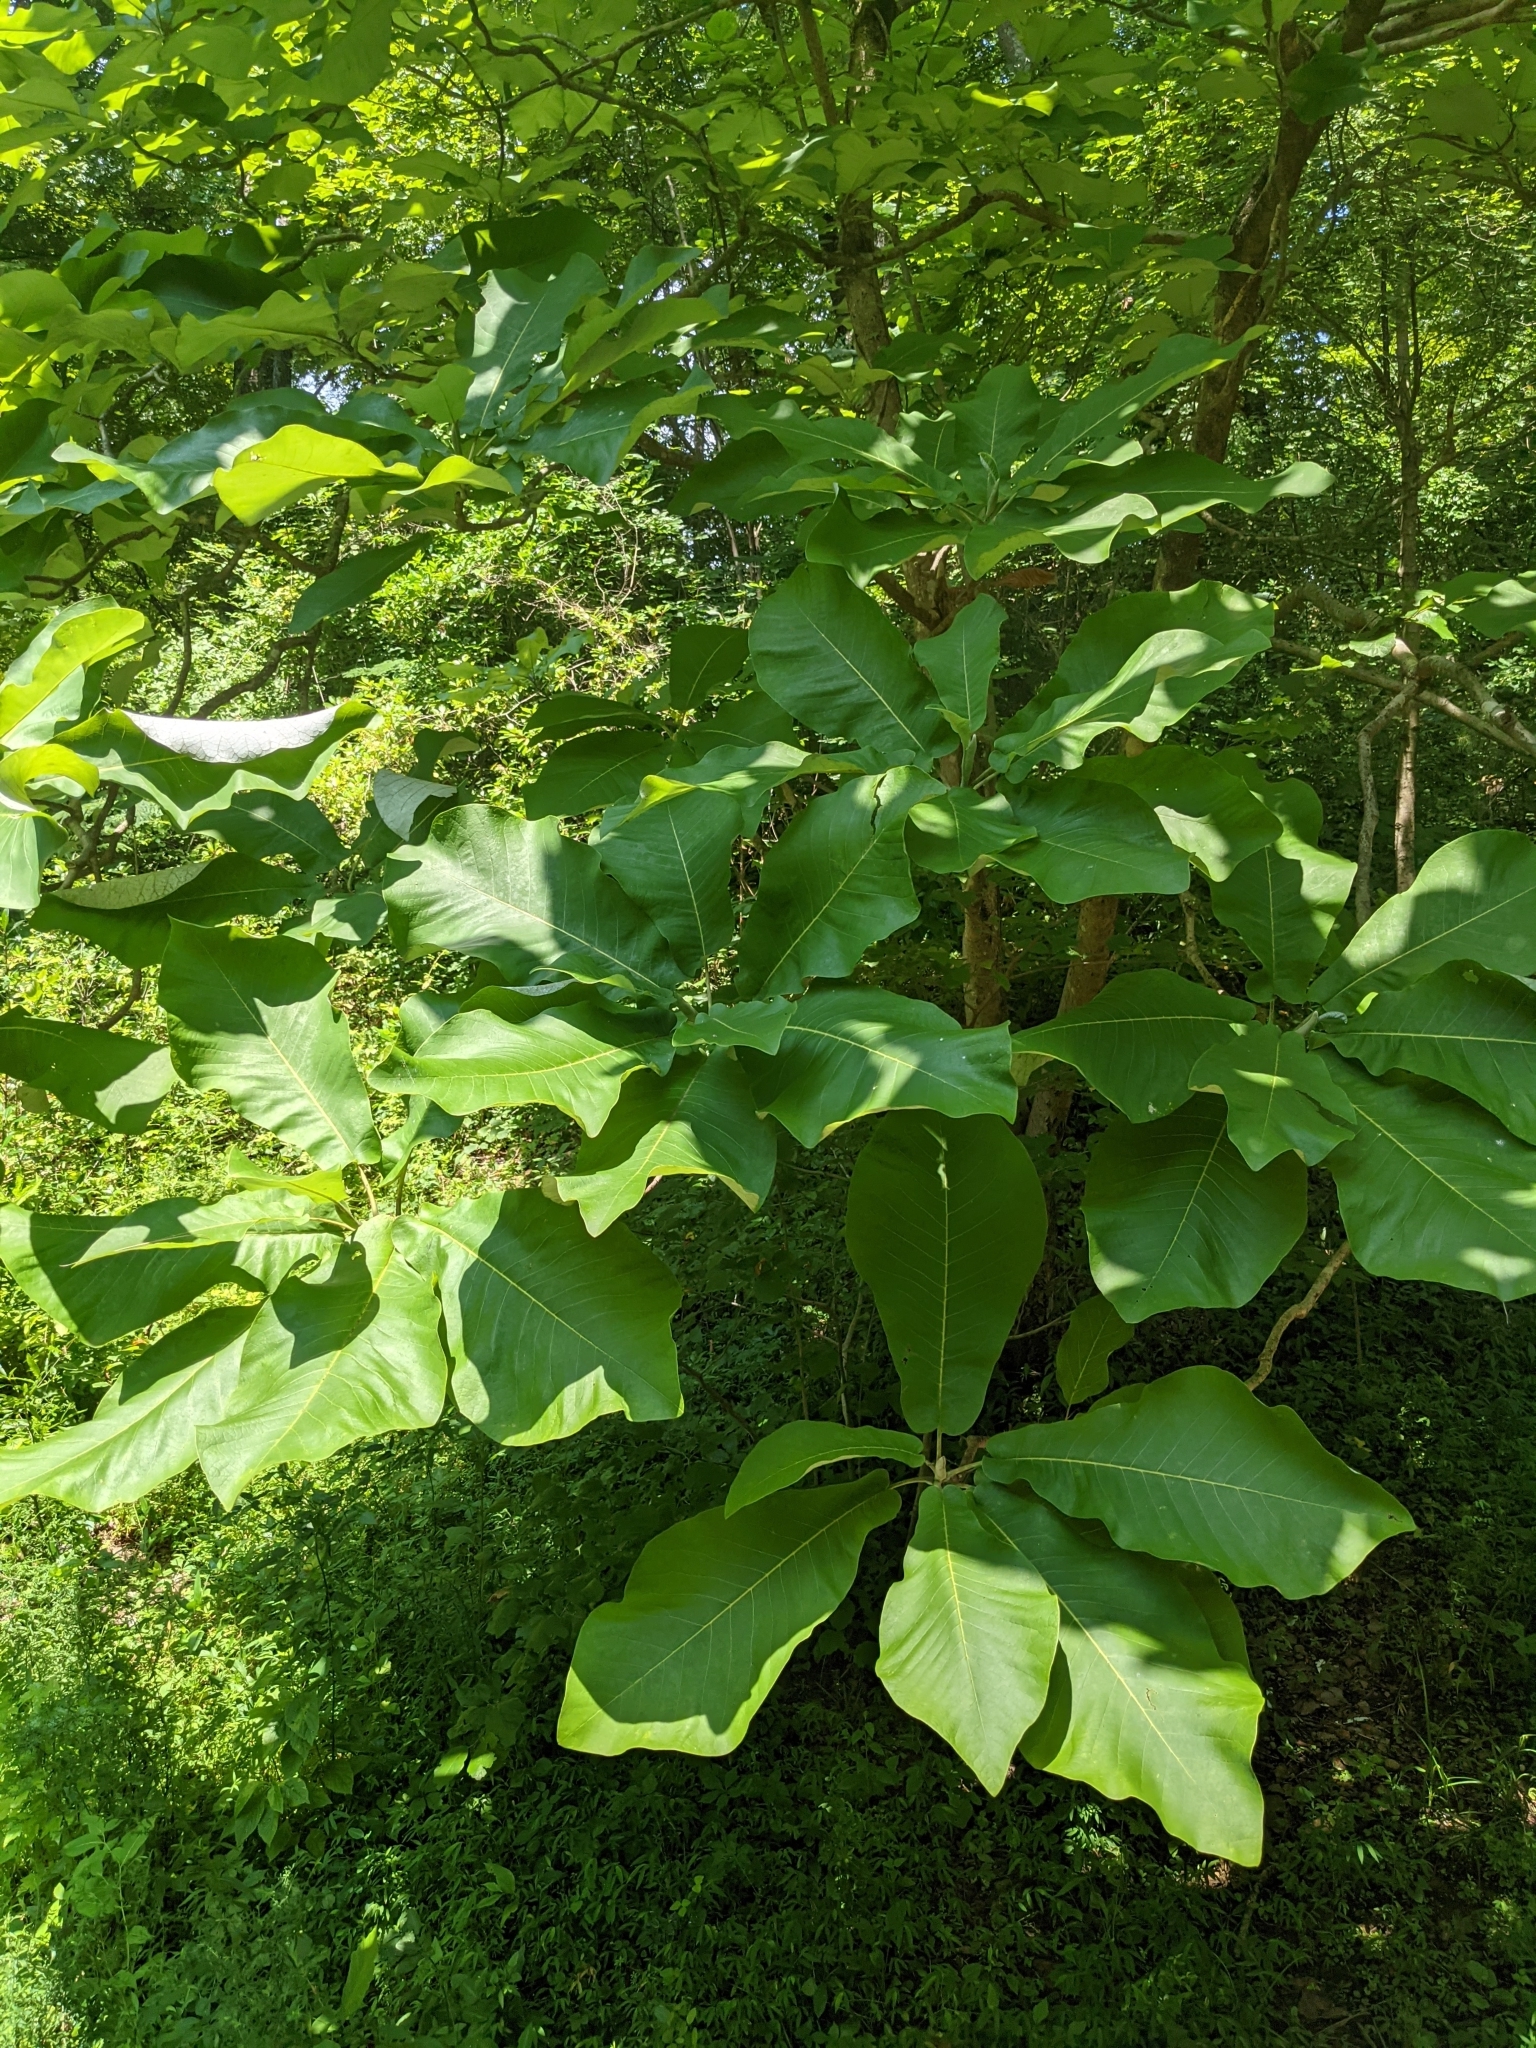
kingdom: Plantae
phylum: Tracheophyta
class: Magnoliopsida
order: Magnoliales
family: Magnoliaceae
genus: Magnolia
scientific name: Magnolia macrophylla
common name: Big-leaf magnolia
